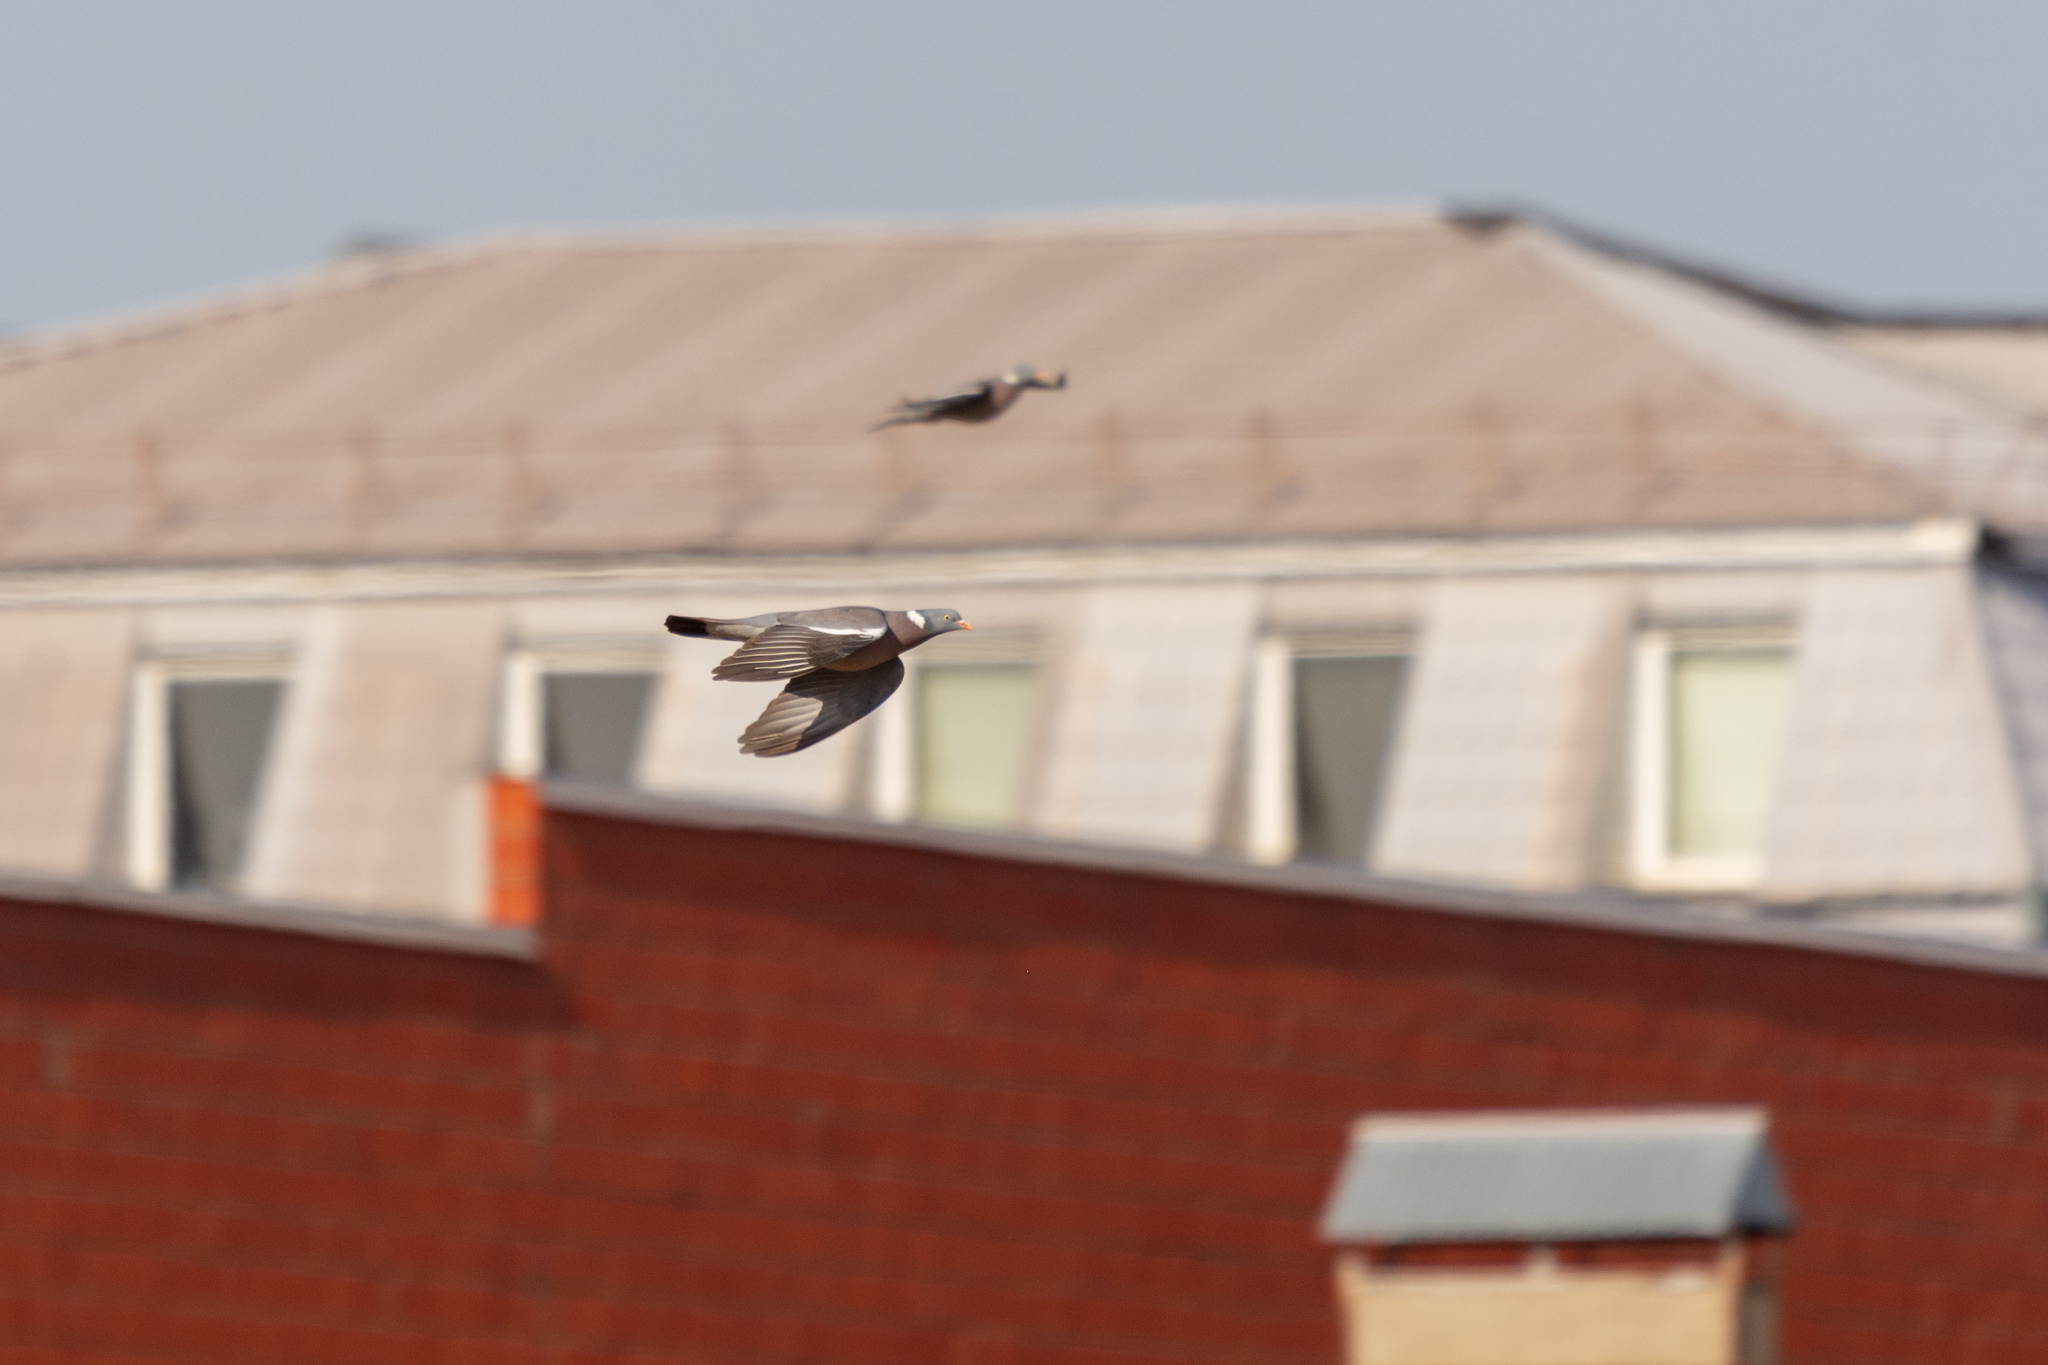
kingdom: Animalia
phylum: Chordata
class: Aves
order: Columbiformes
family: Columbidae
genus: Columba
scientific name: Columba palumbus
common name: Common wood pigeon
